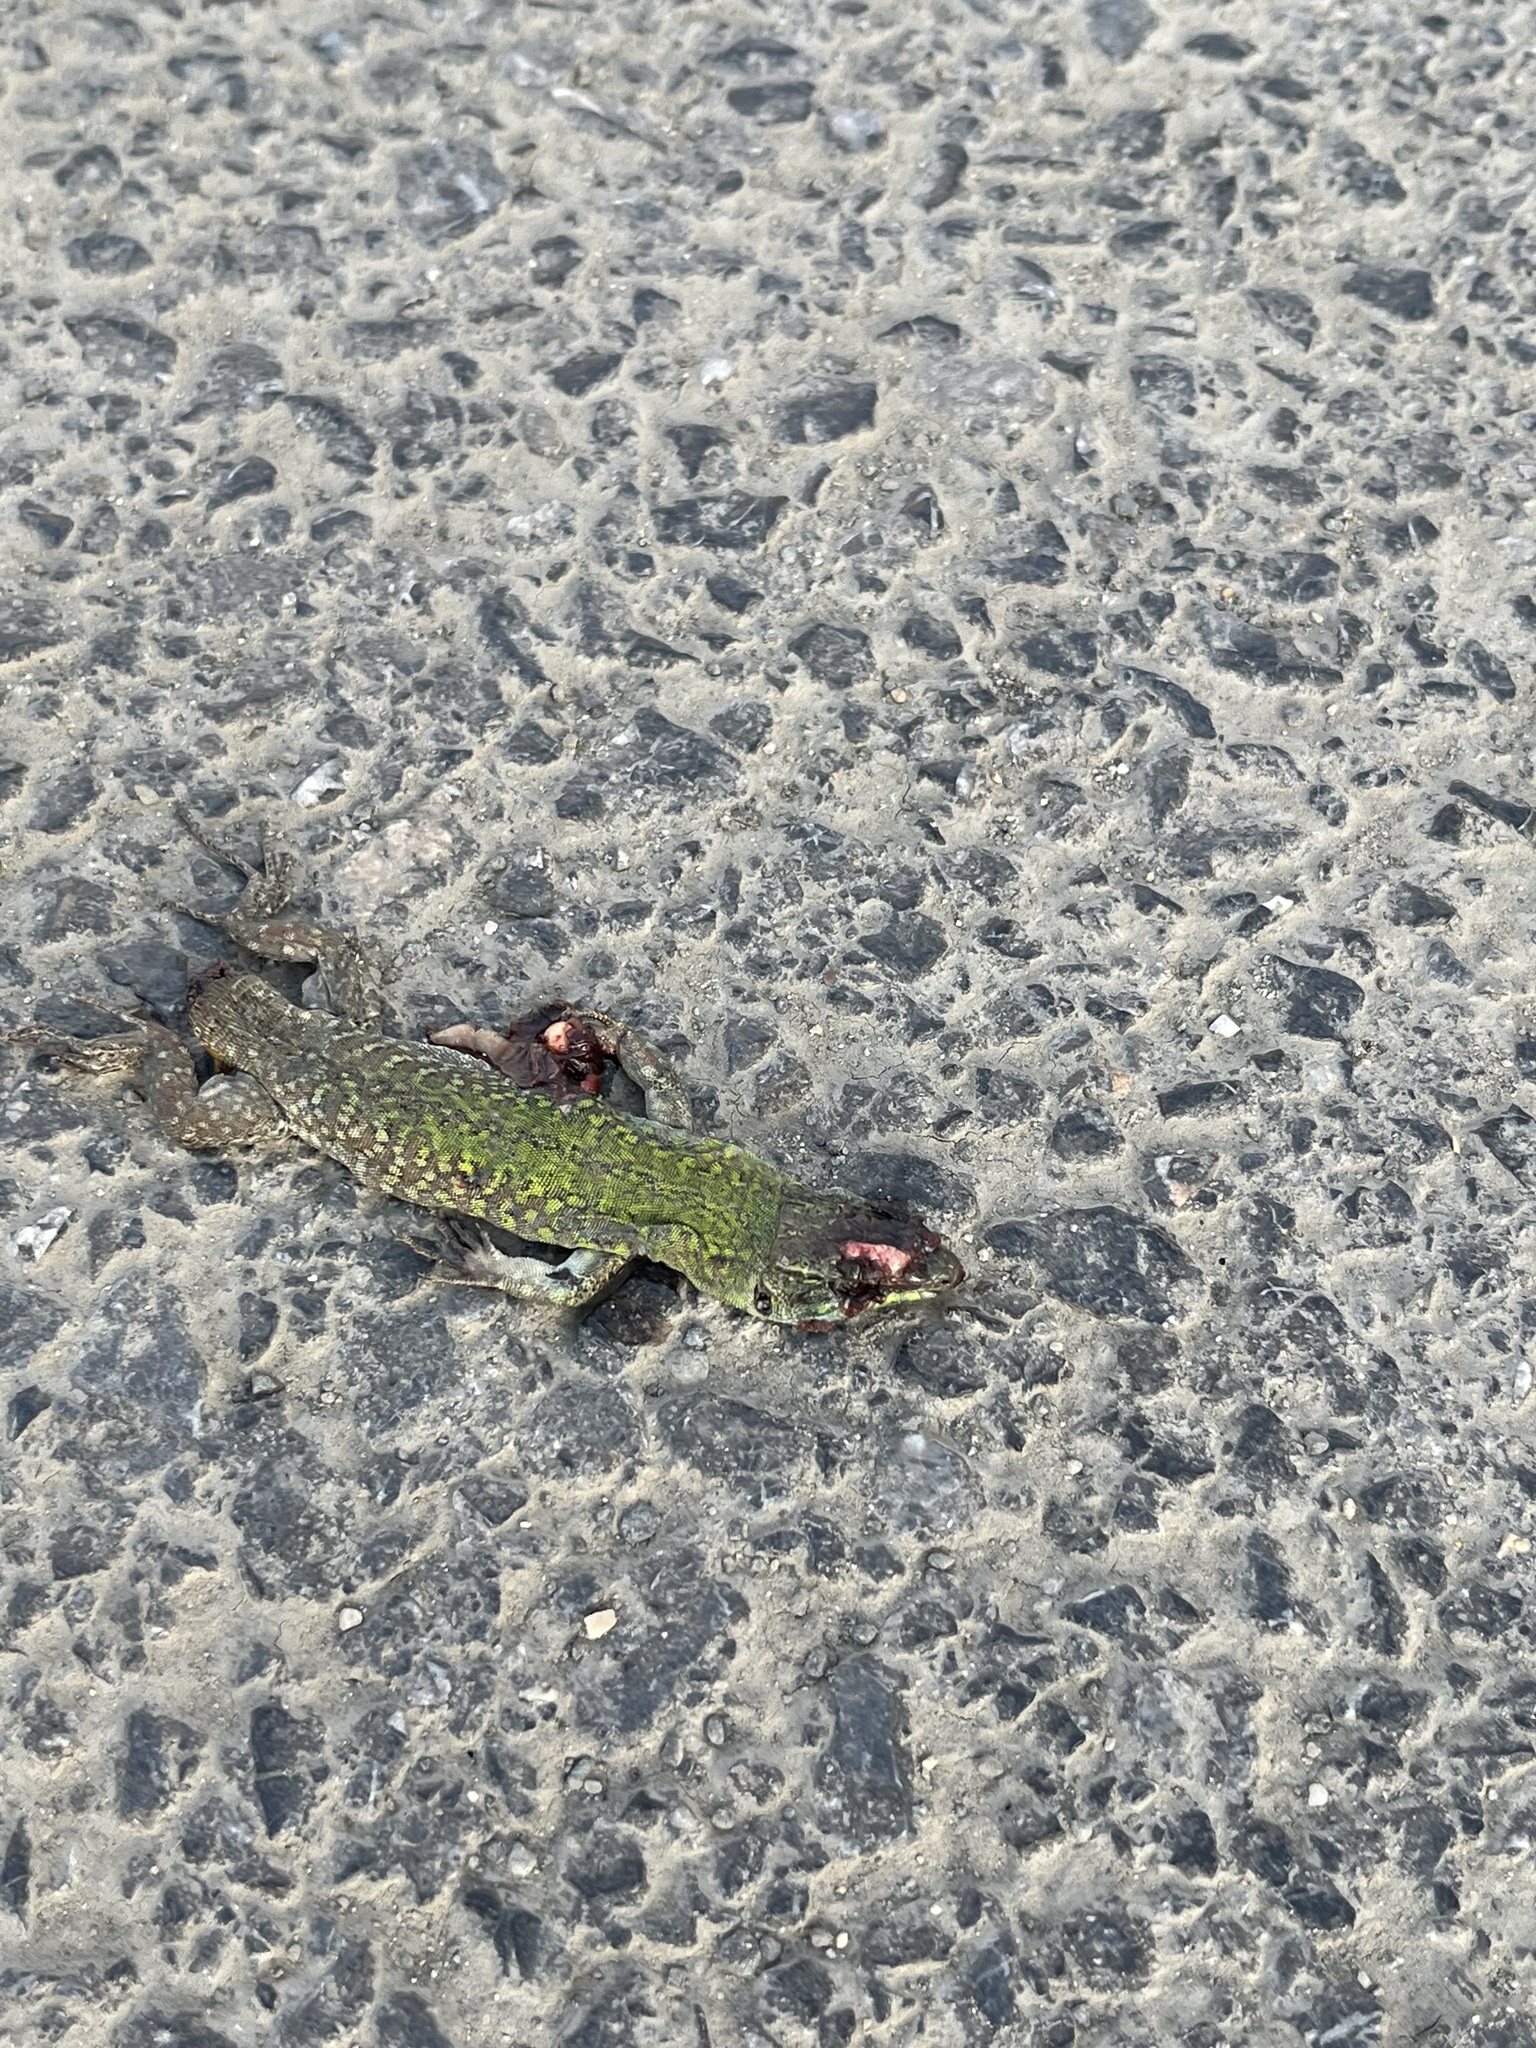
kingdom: Animalia
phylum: Chordata
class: Squamata
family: Lacertidae
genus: Podarcis
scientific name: Podarcis siculus
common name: Italian wall lizard
